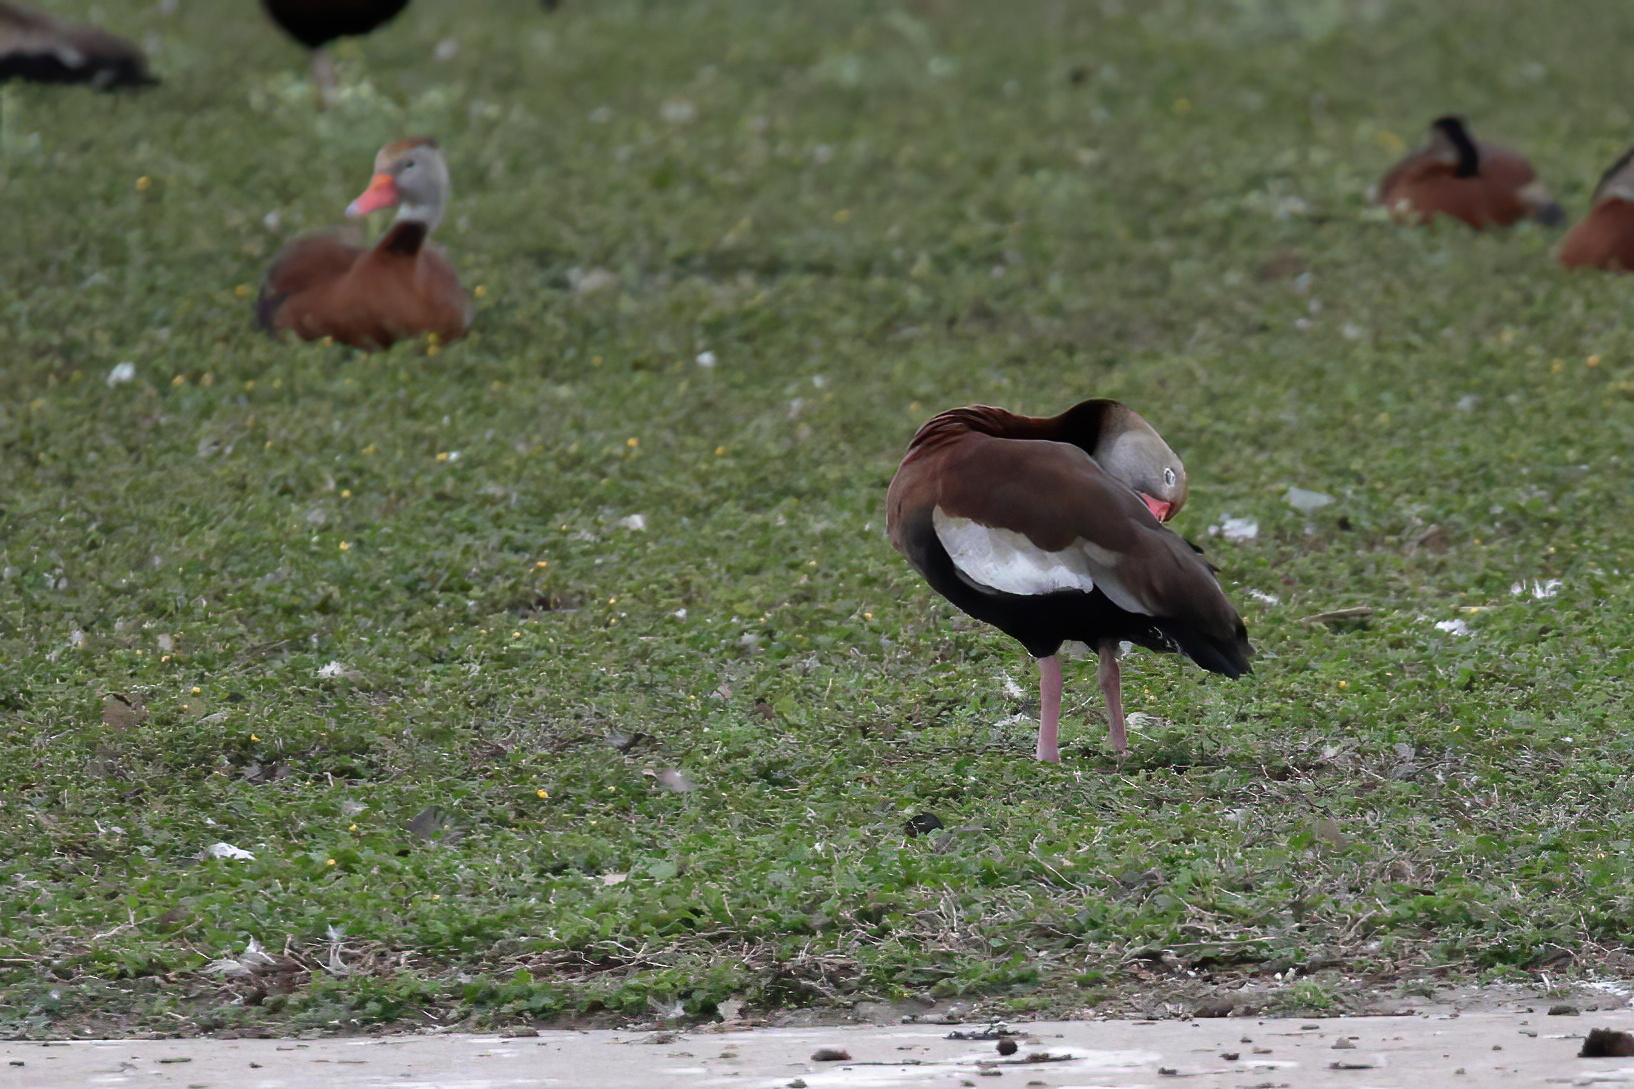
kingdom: Animalia
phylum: Chordata
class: Aves
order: Anseriformes
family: Anatidae
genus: Dendrocygna
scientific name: Dendrocygna autumnalis
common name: Black-bellied whistling duck
